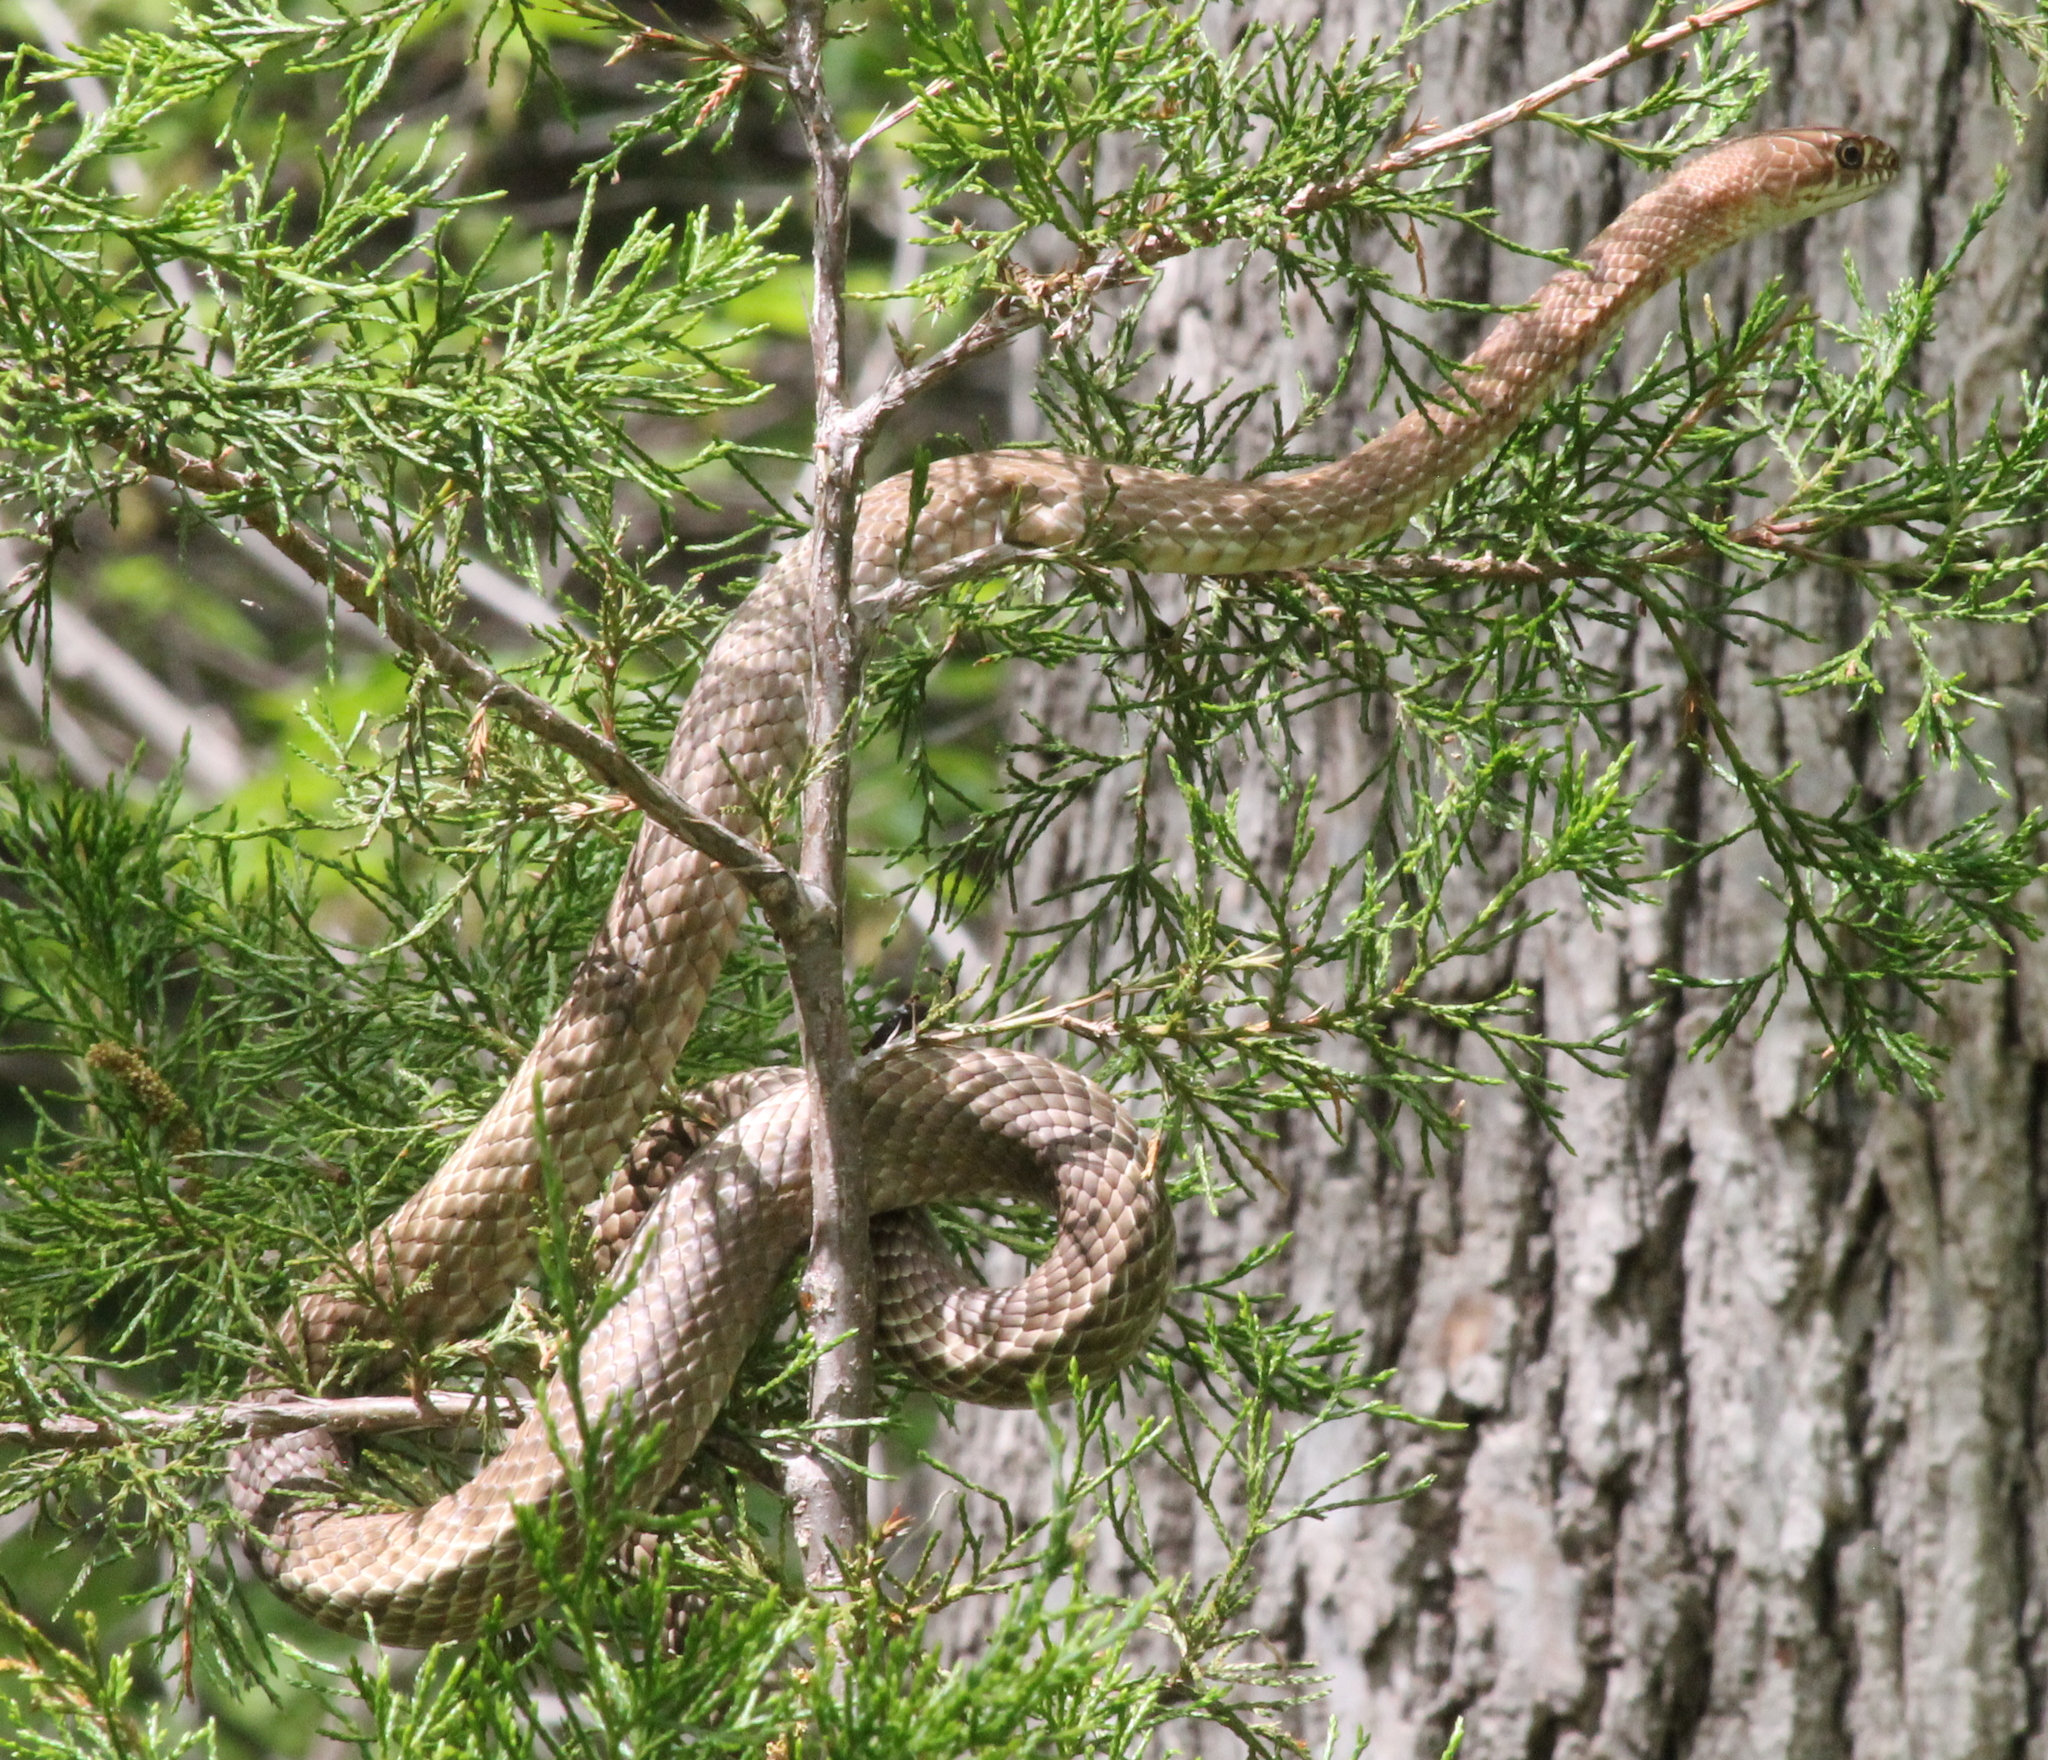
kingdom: Animalia
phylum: Chordata
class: Squamata
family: Colubridae
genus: Masticophis
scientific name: Masticophis flagellum
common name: Coachwhip
